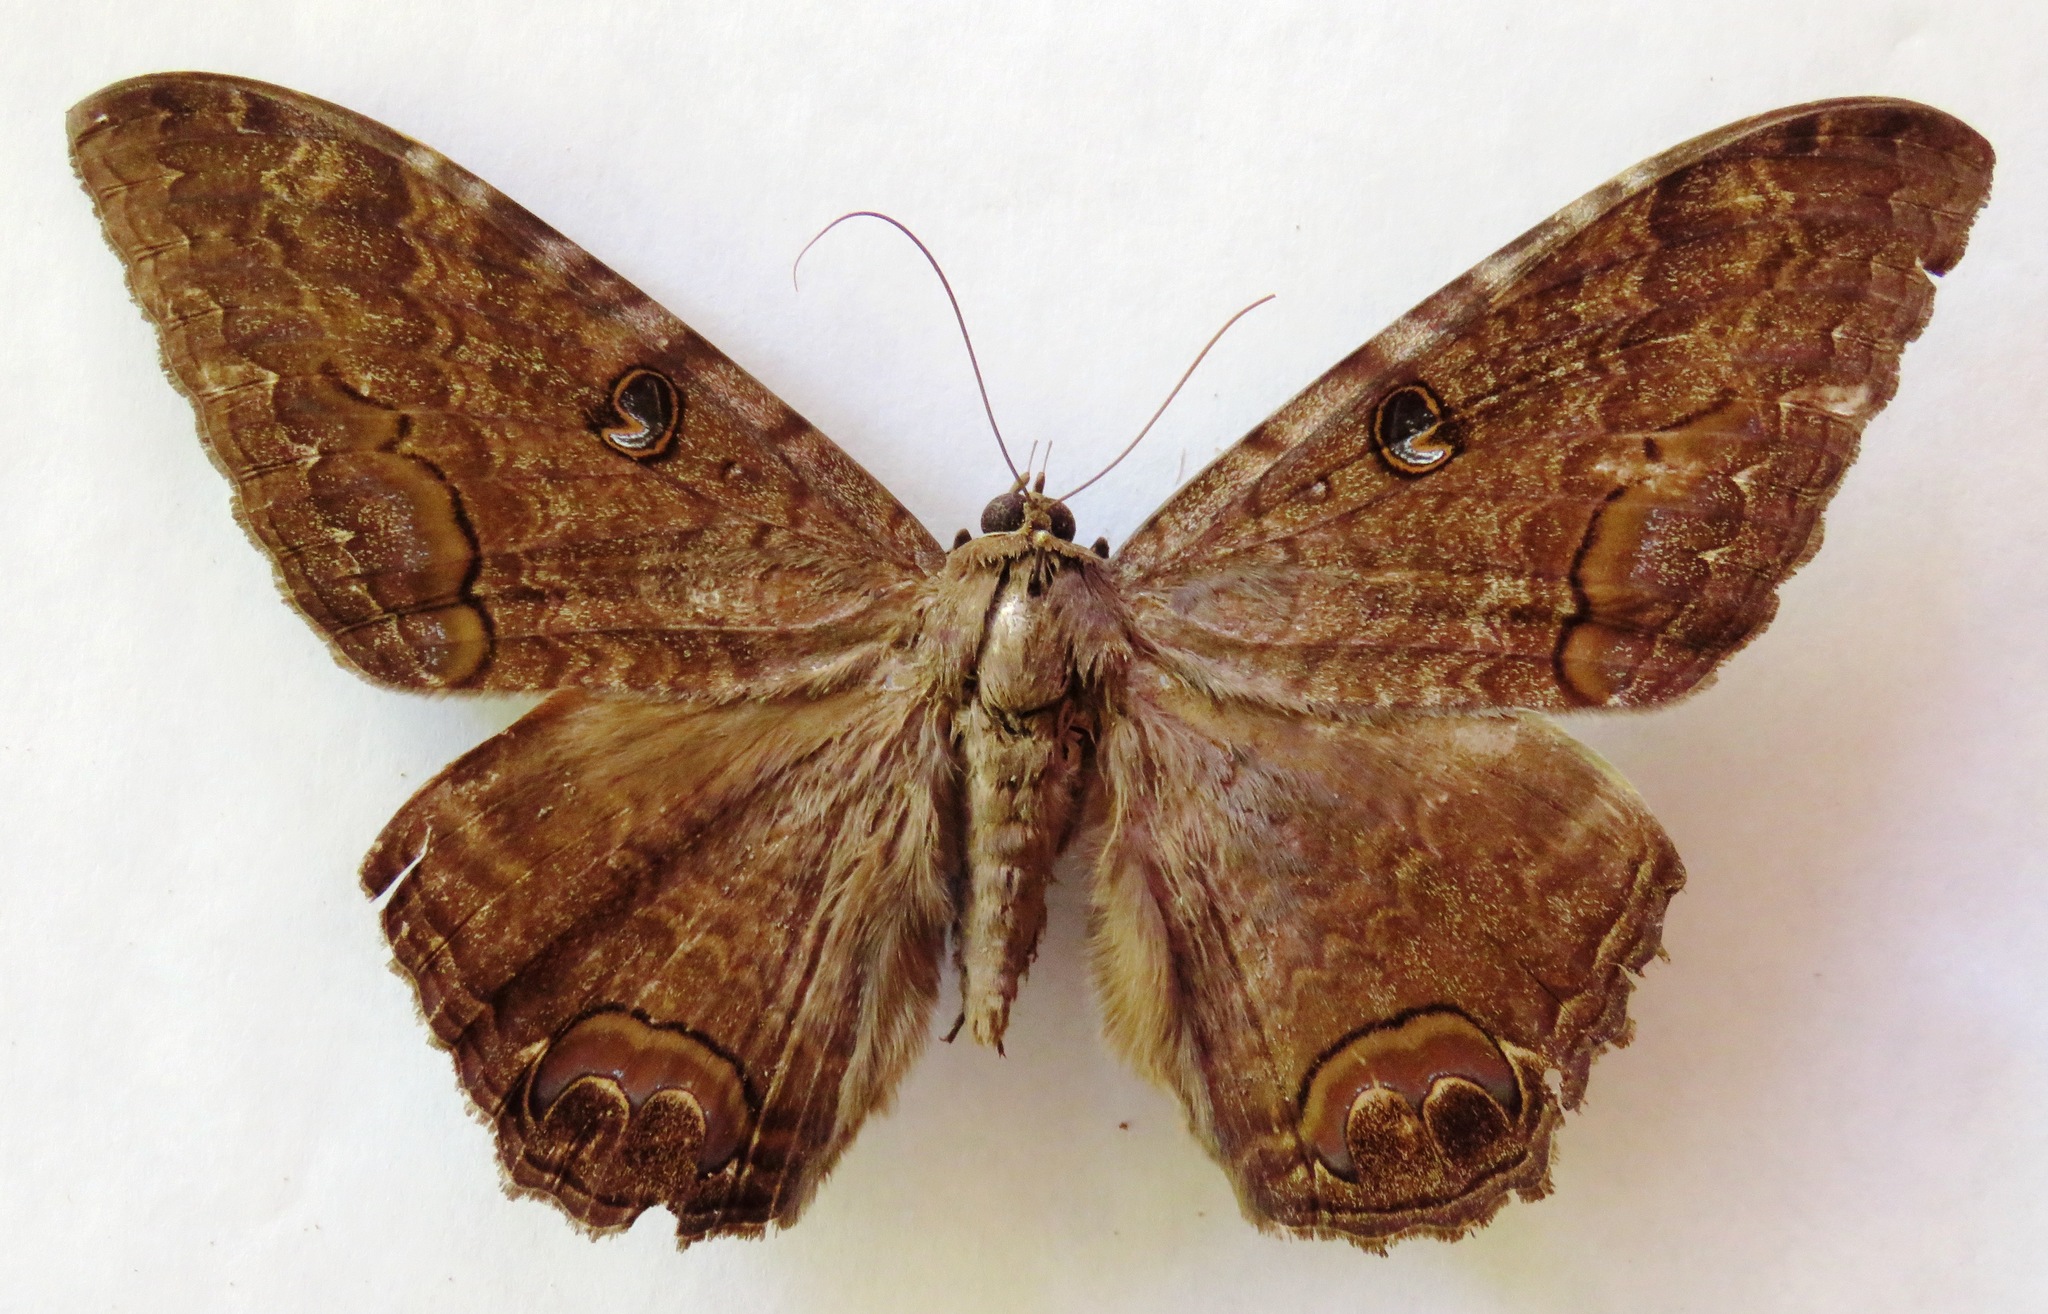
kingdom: Animalia
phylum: Arthropoda
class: Insecta
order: Lepidoptera
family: Erebidae
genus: Ascalapha
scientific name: Ascalapha odorata
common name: Black witch
